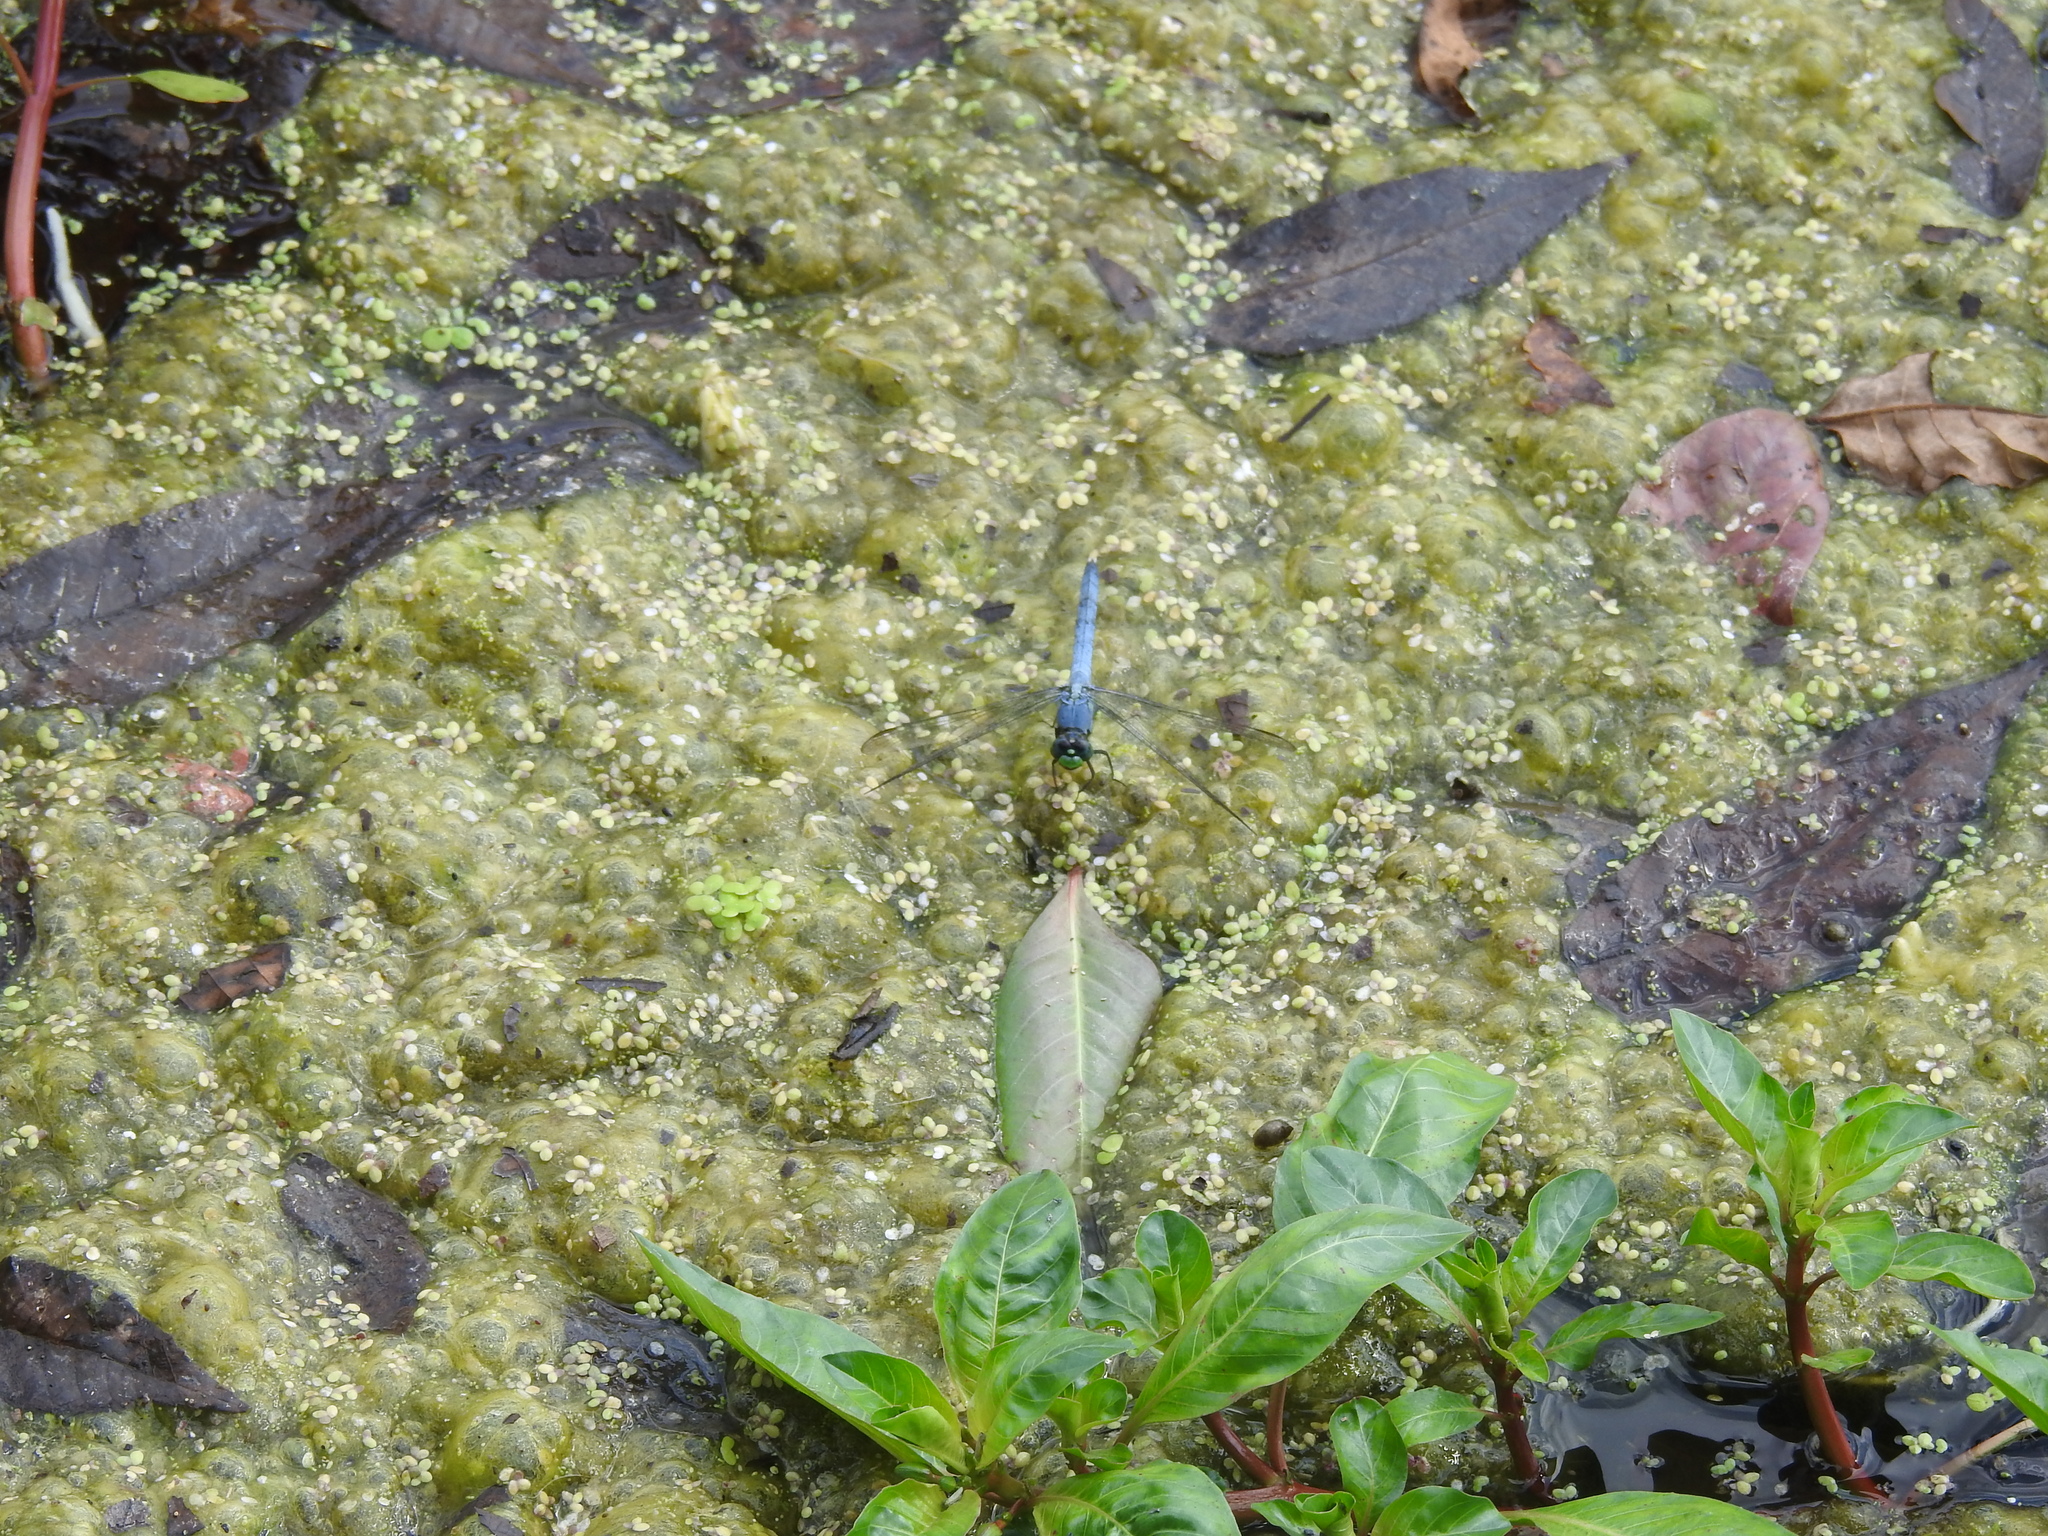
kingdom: Animalia
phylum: Arthropoda
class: Insecta
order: Odonata
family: Libellulidae
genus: Erythemis
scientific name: Erythemis simplicicollis
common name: Eastern pondhawk
